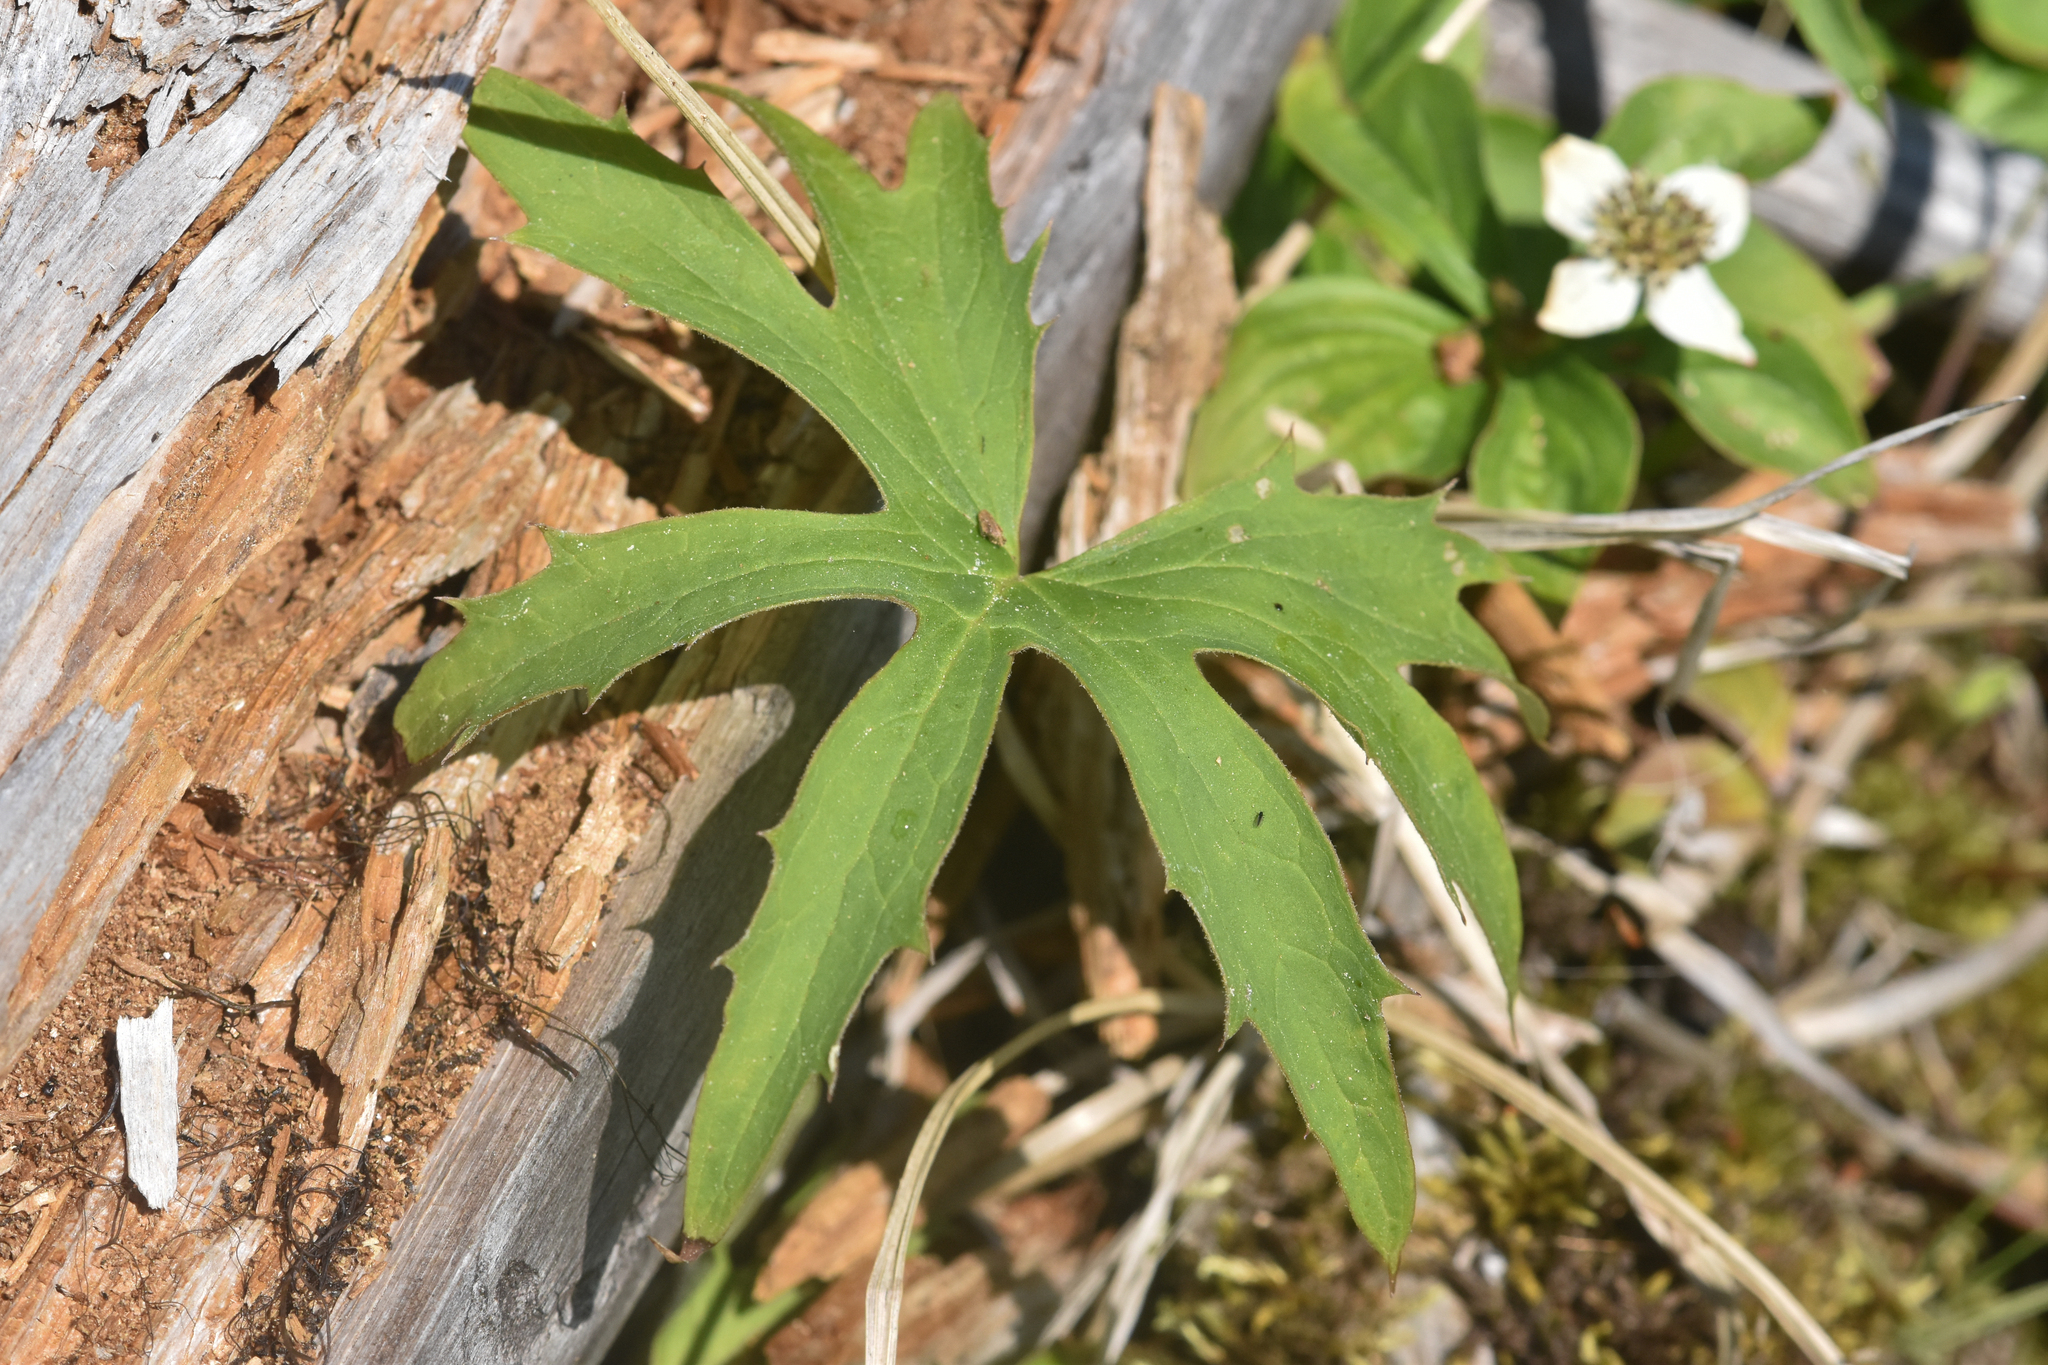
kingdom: Plantae
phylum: Tracheophyta
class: Magnoliopsida
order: Asterales
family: Asteraceae
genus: Petasites
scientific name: Petasites frigidus
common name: Arctic butterbur
